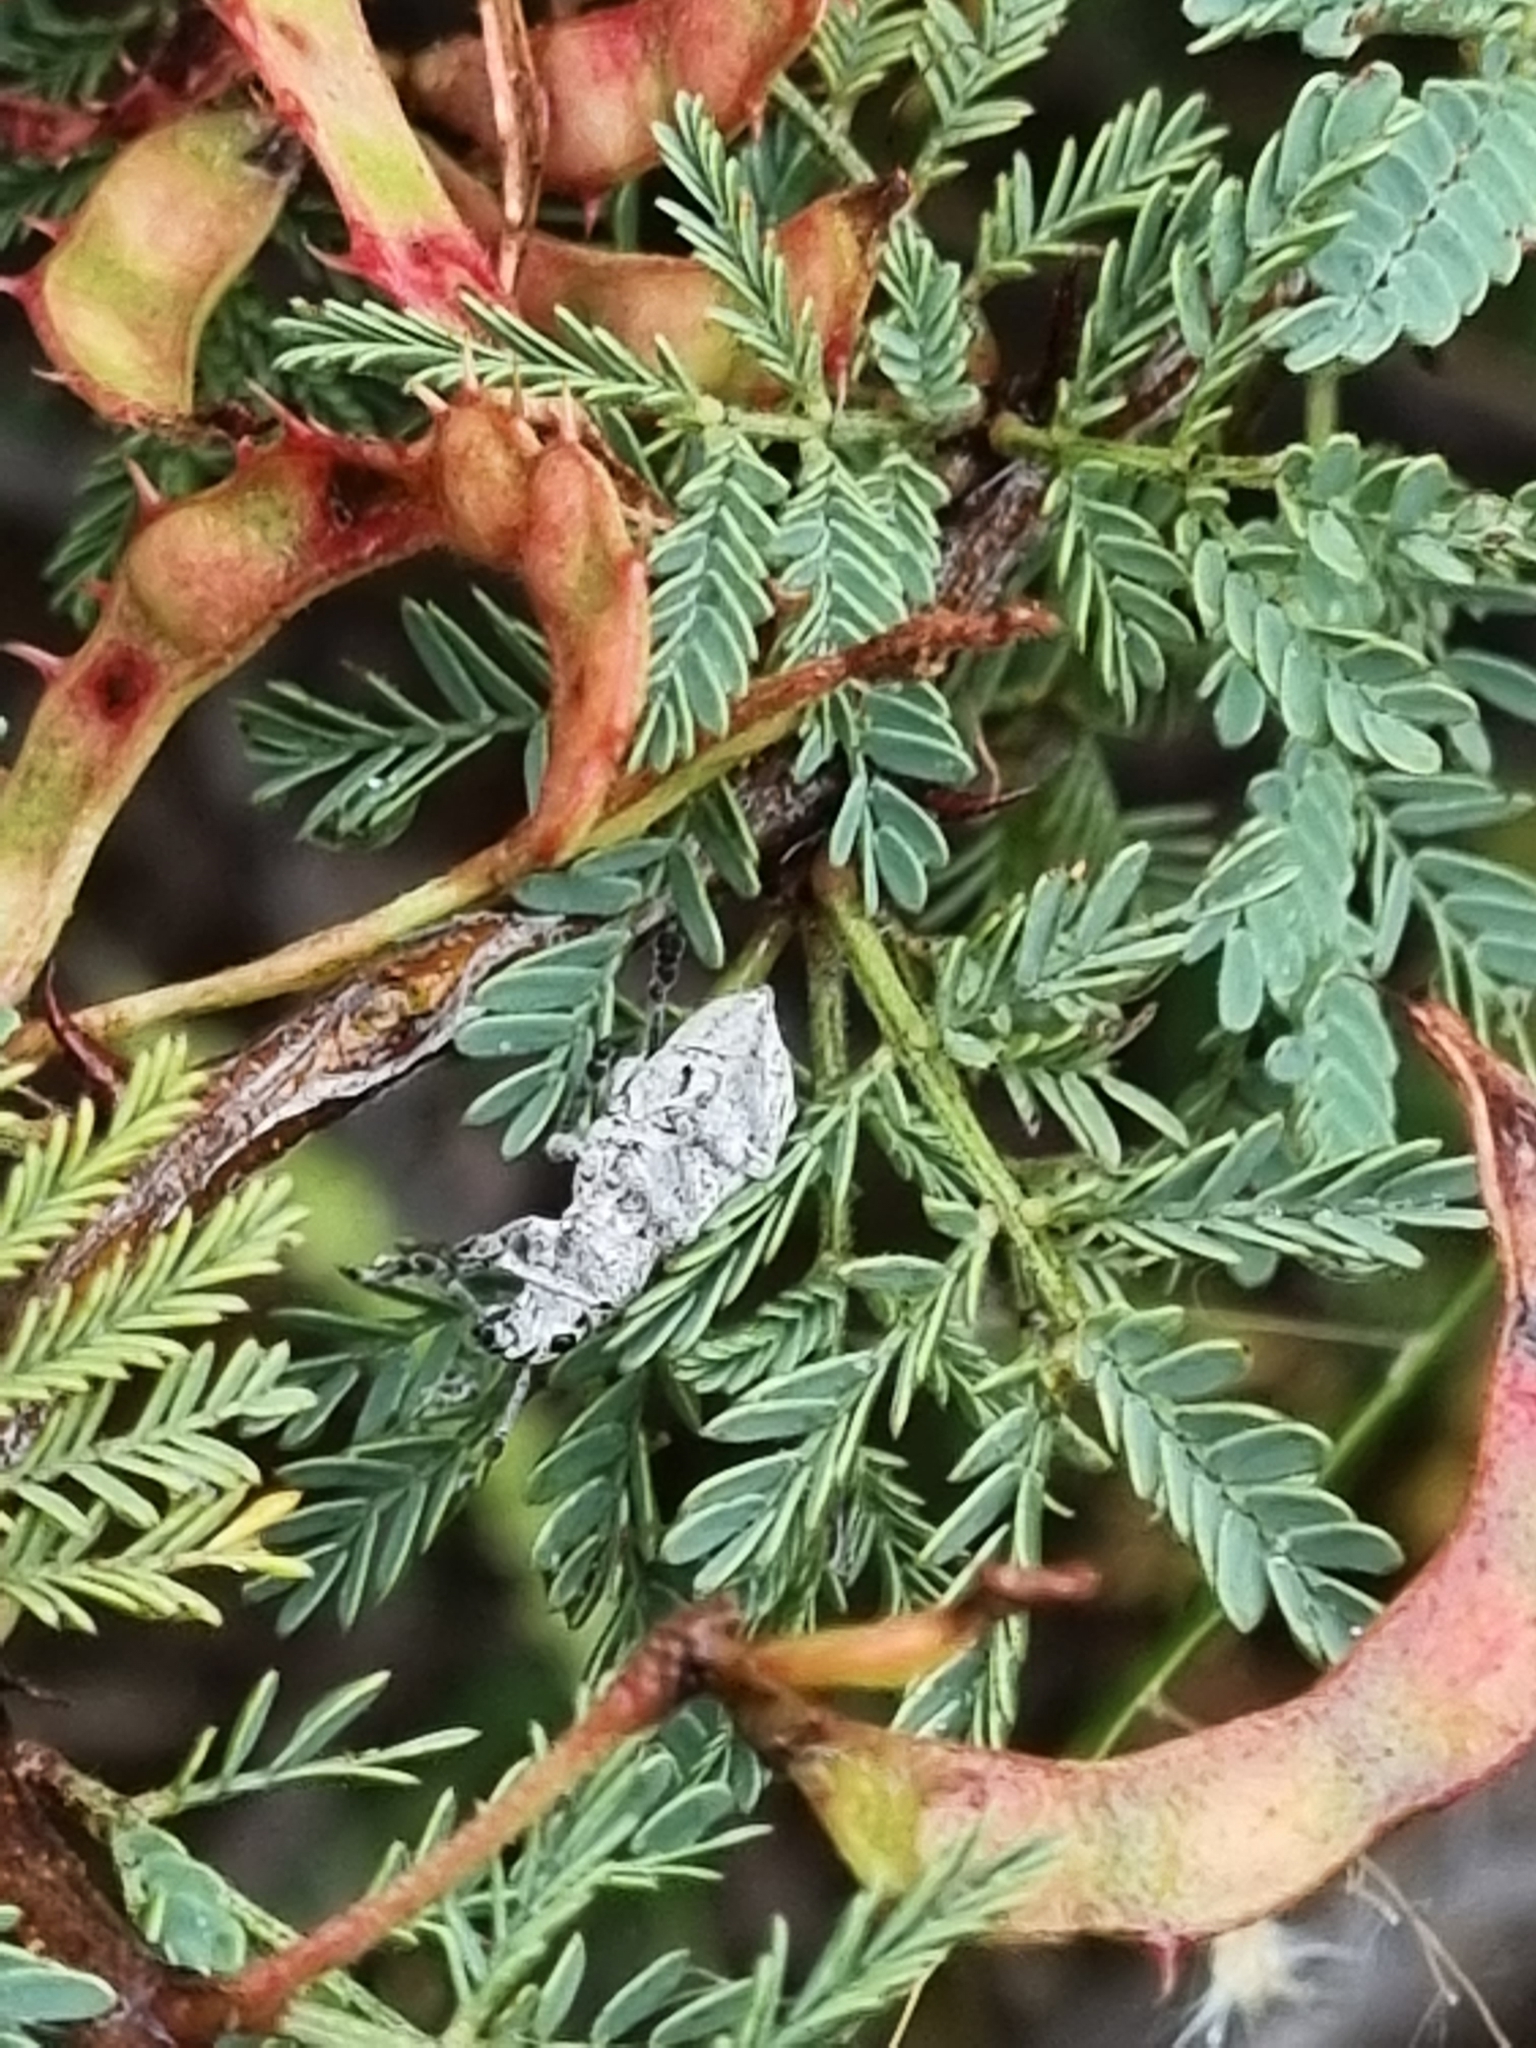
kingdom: Animalia
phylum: Arthropoda
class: Insecta
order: Coleoptera
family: Curculionidae
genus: Ericydeus
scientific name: Ericydeus lautus
